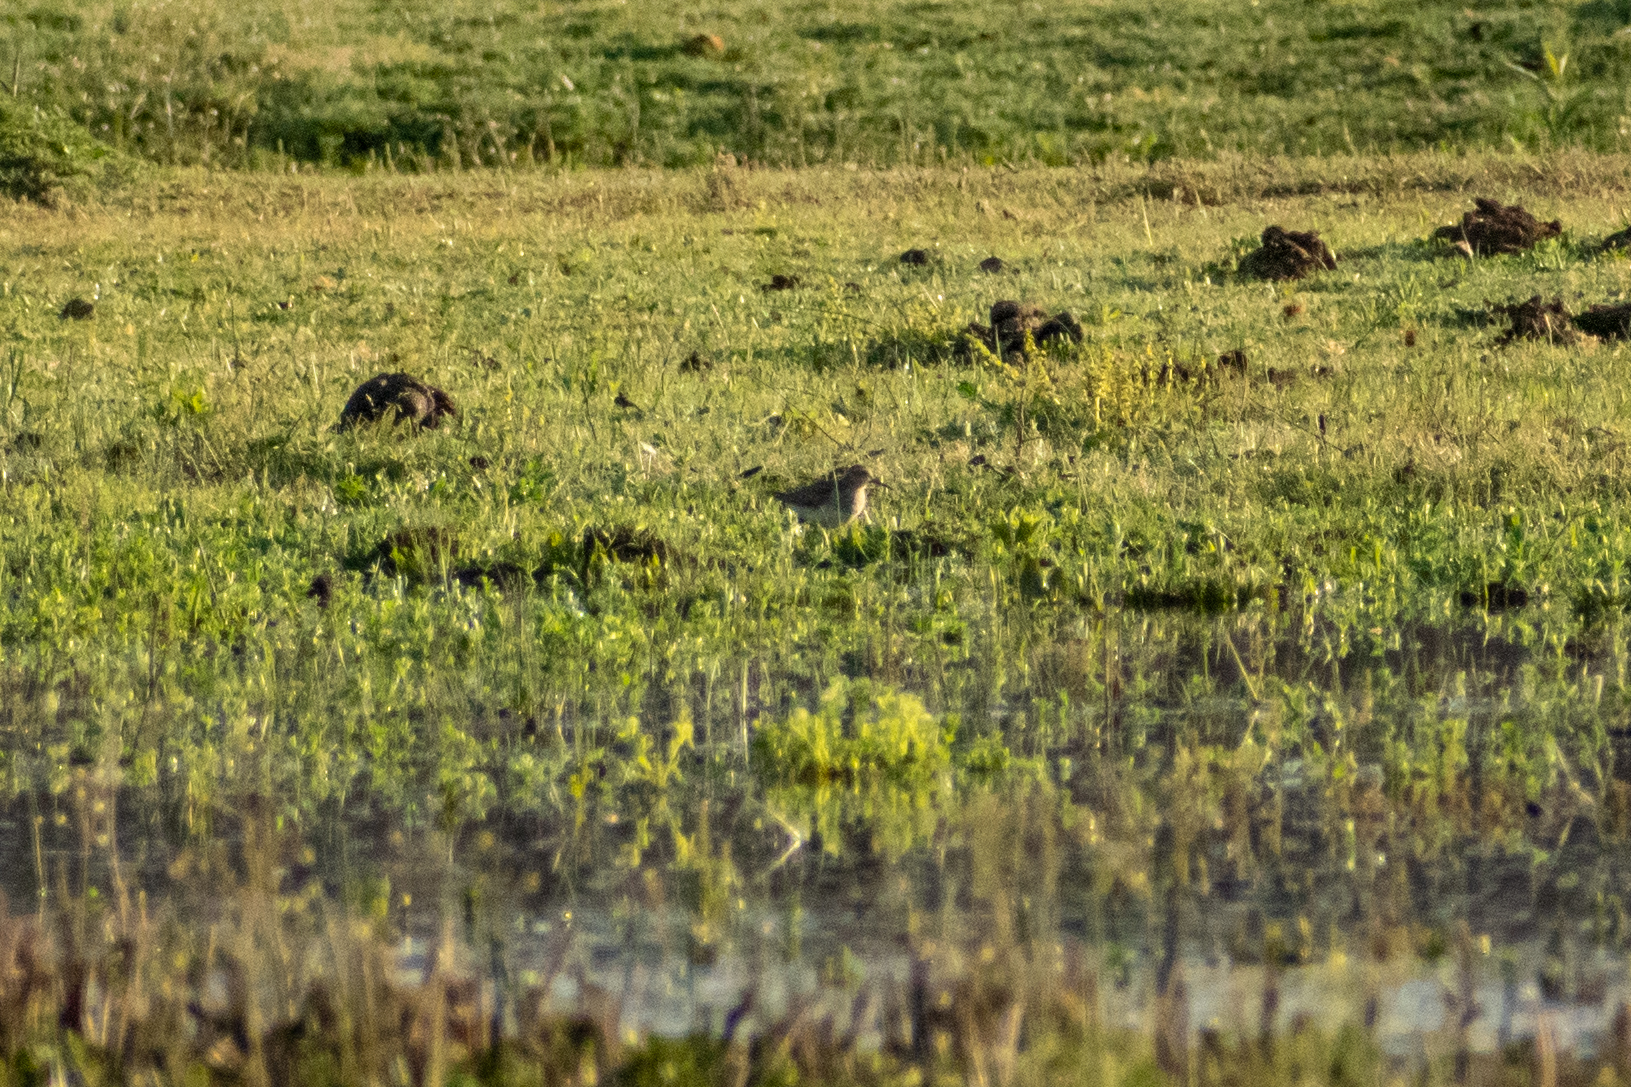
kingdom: Animalia
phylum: Chordata
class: Aves
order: Charadriiformes
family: Scolopacidae
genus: Calidris
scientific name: Calidris melanotos
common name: Pectoral sandpiper
